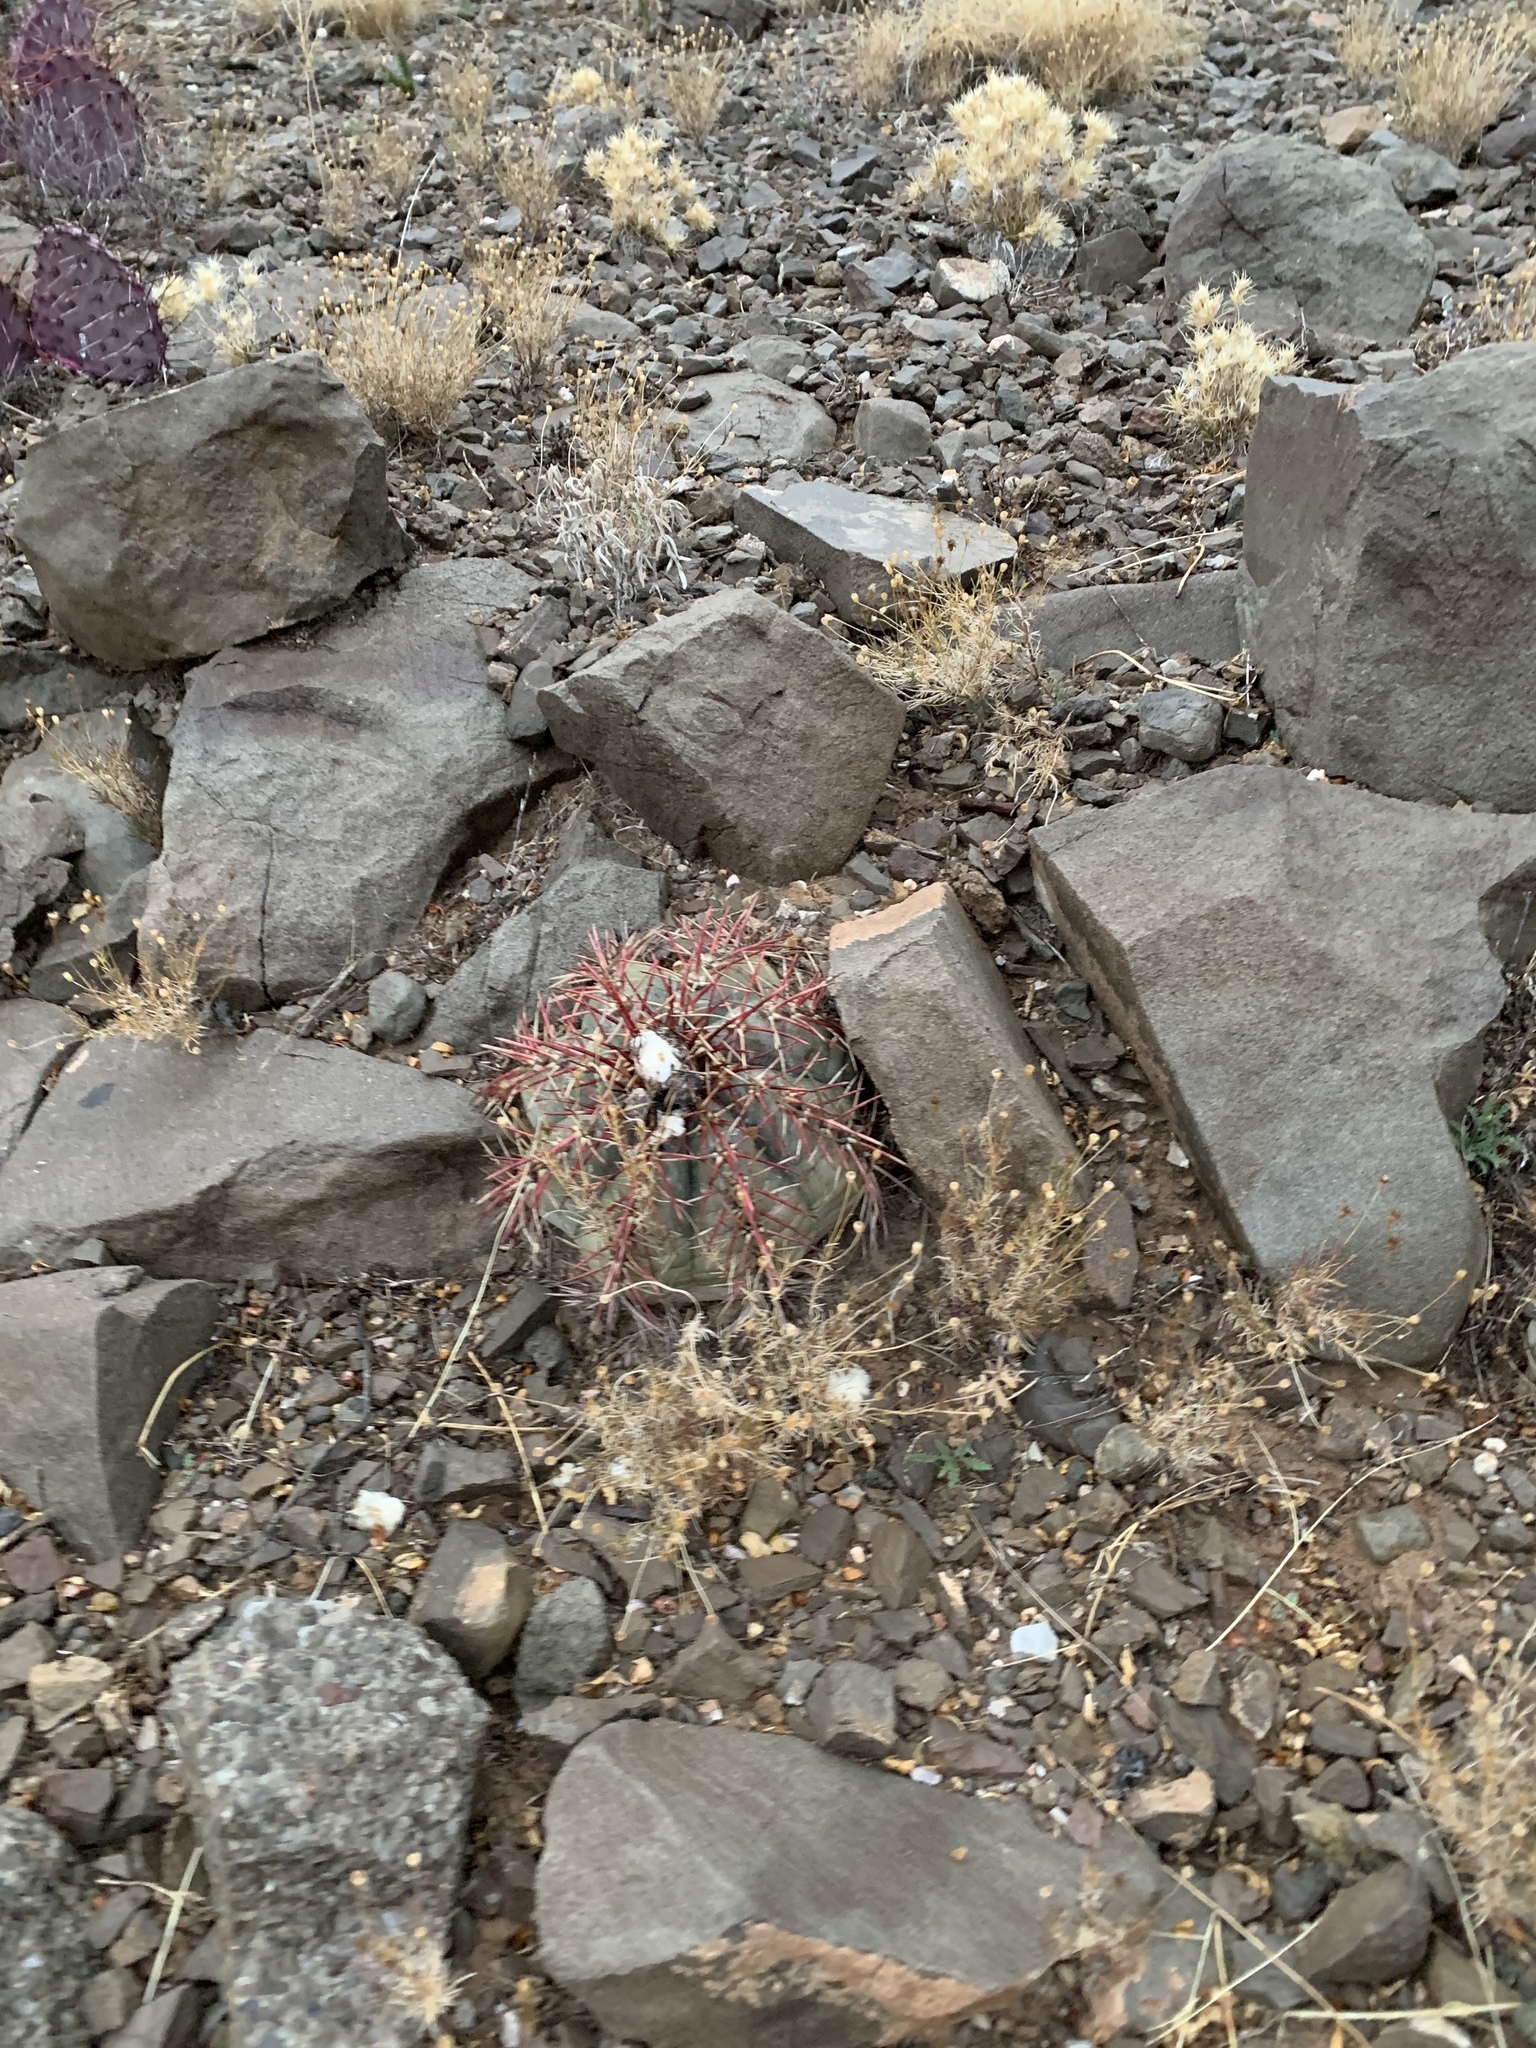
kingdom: Plantae
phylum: Tracheophyta
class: Magnoliopsida
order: Caryophyllales
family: Cactaceae
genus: Echinocactus
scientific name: Echinocactus horizonthalonius
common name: Devilshead
